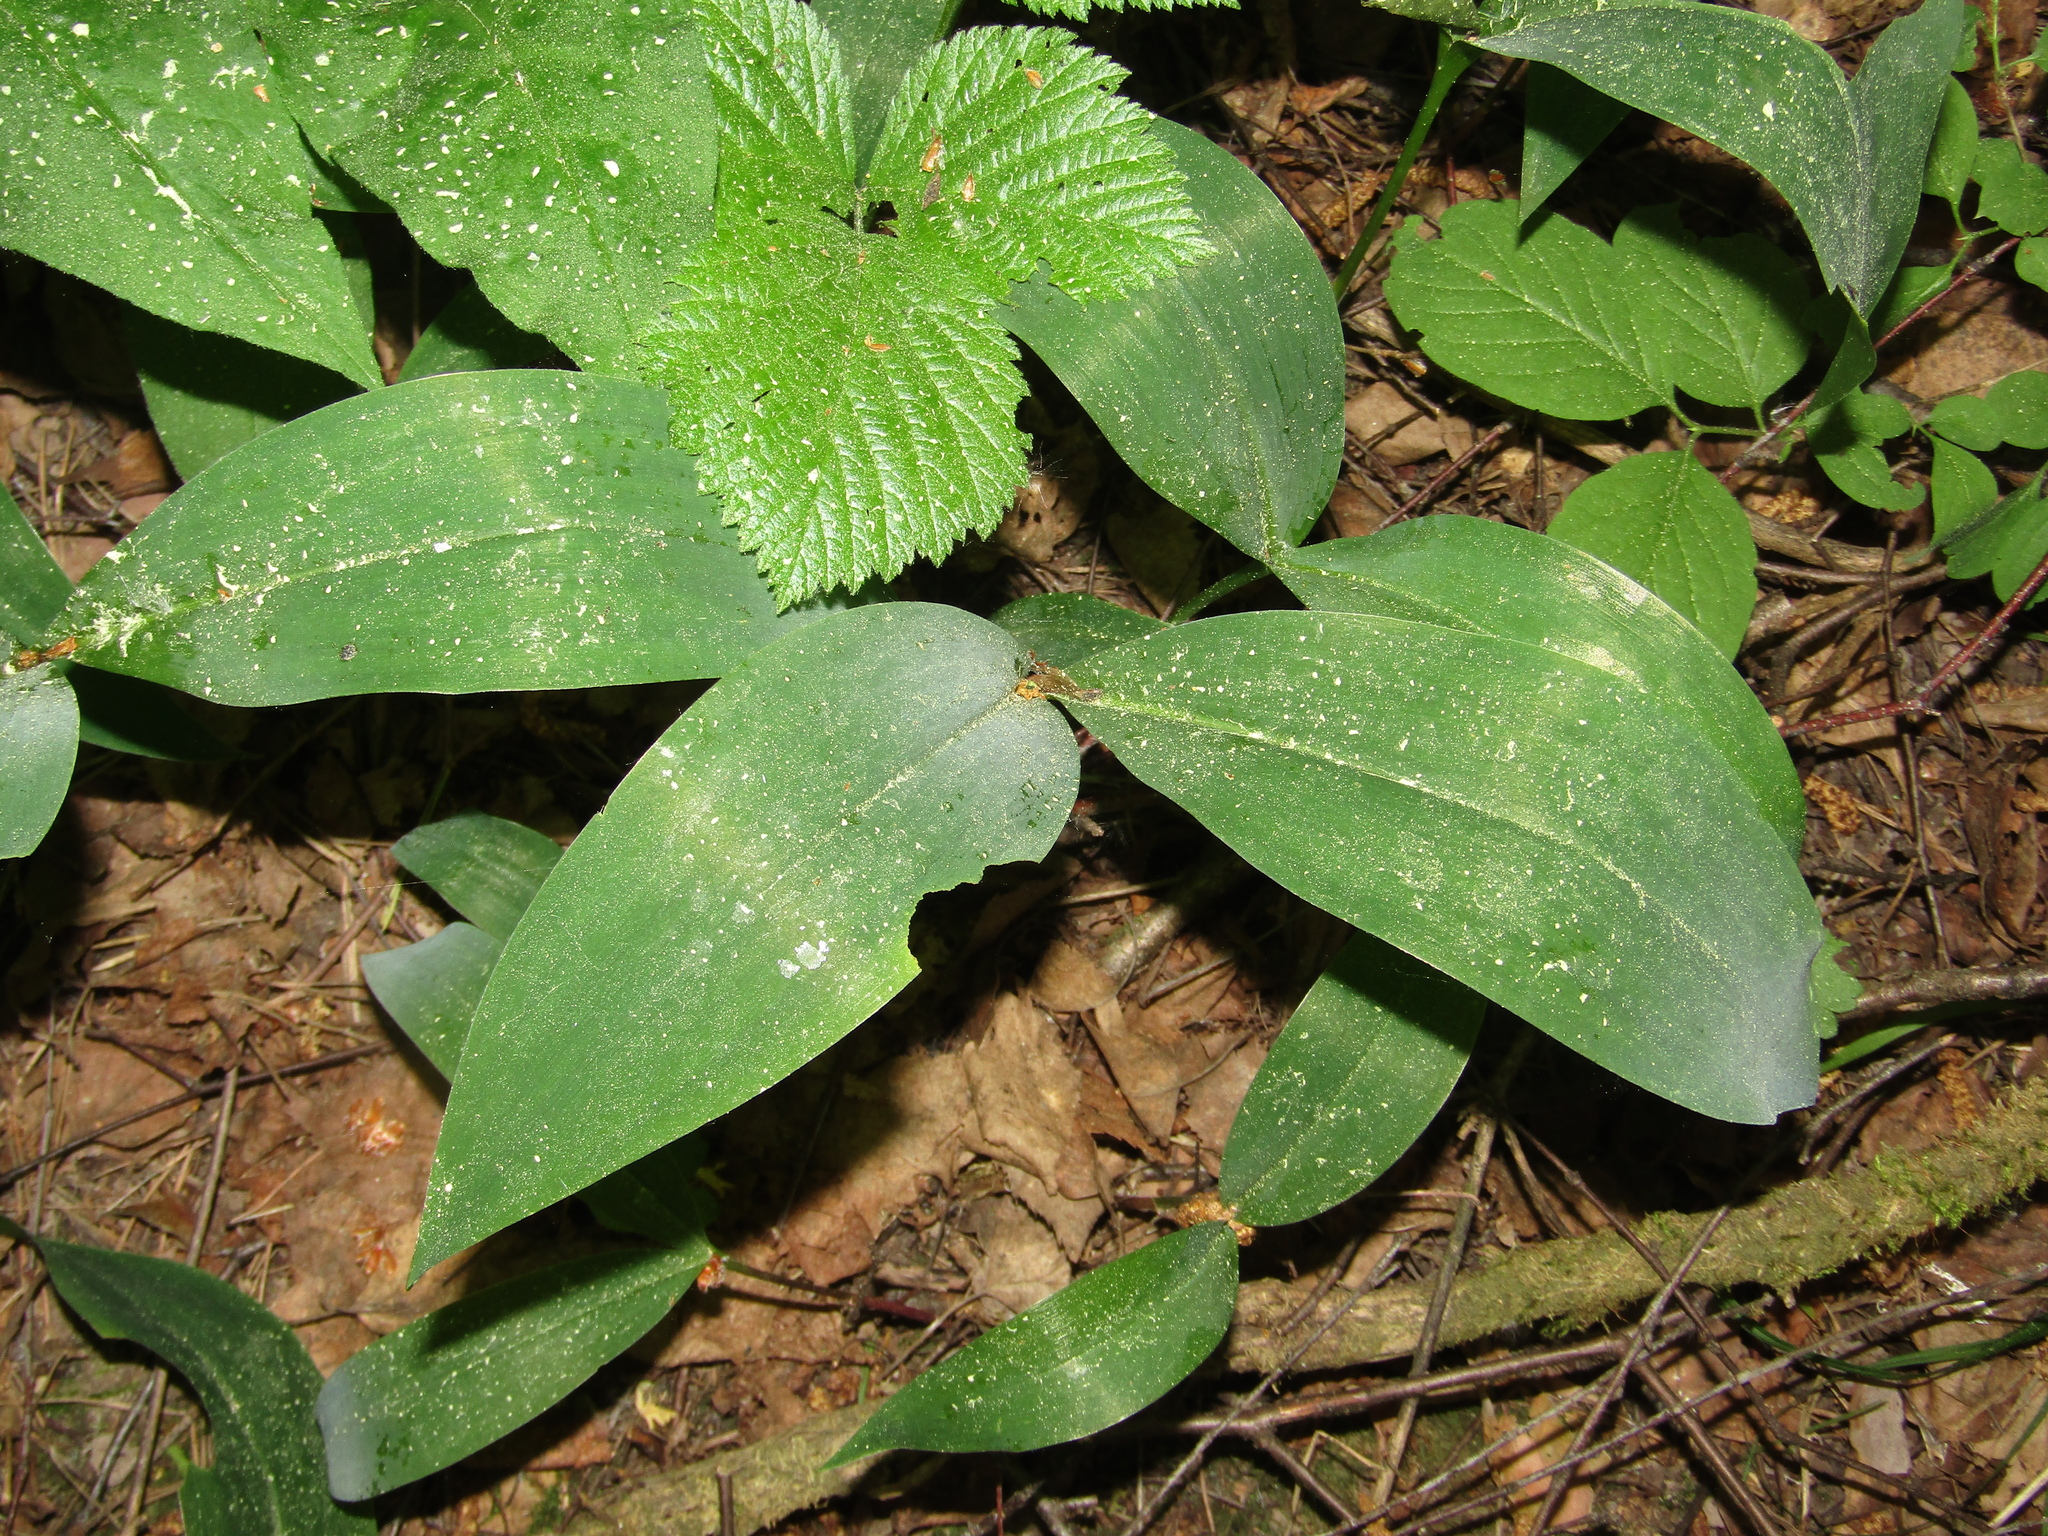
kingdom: Plantae
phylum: Tracheophyta
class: Liliopsida
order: Asparagales
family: Asparagaceae
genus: Convallaria
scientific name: Convallaria majalis
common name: Lily-of-the-valley
